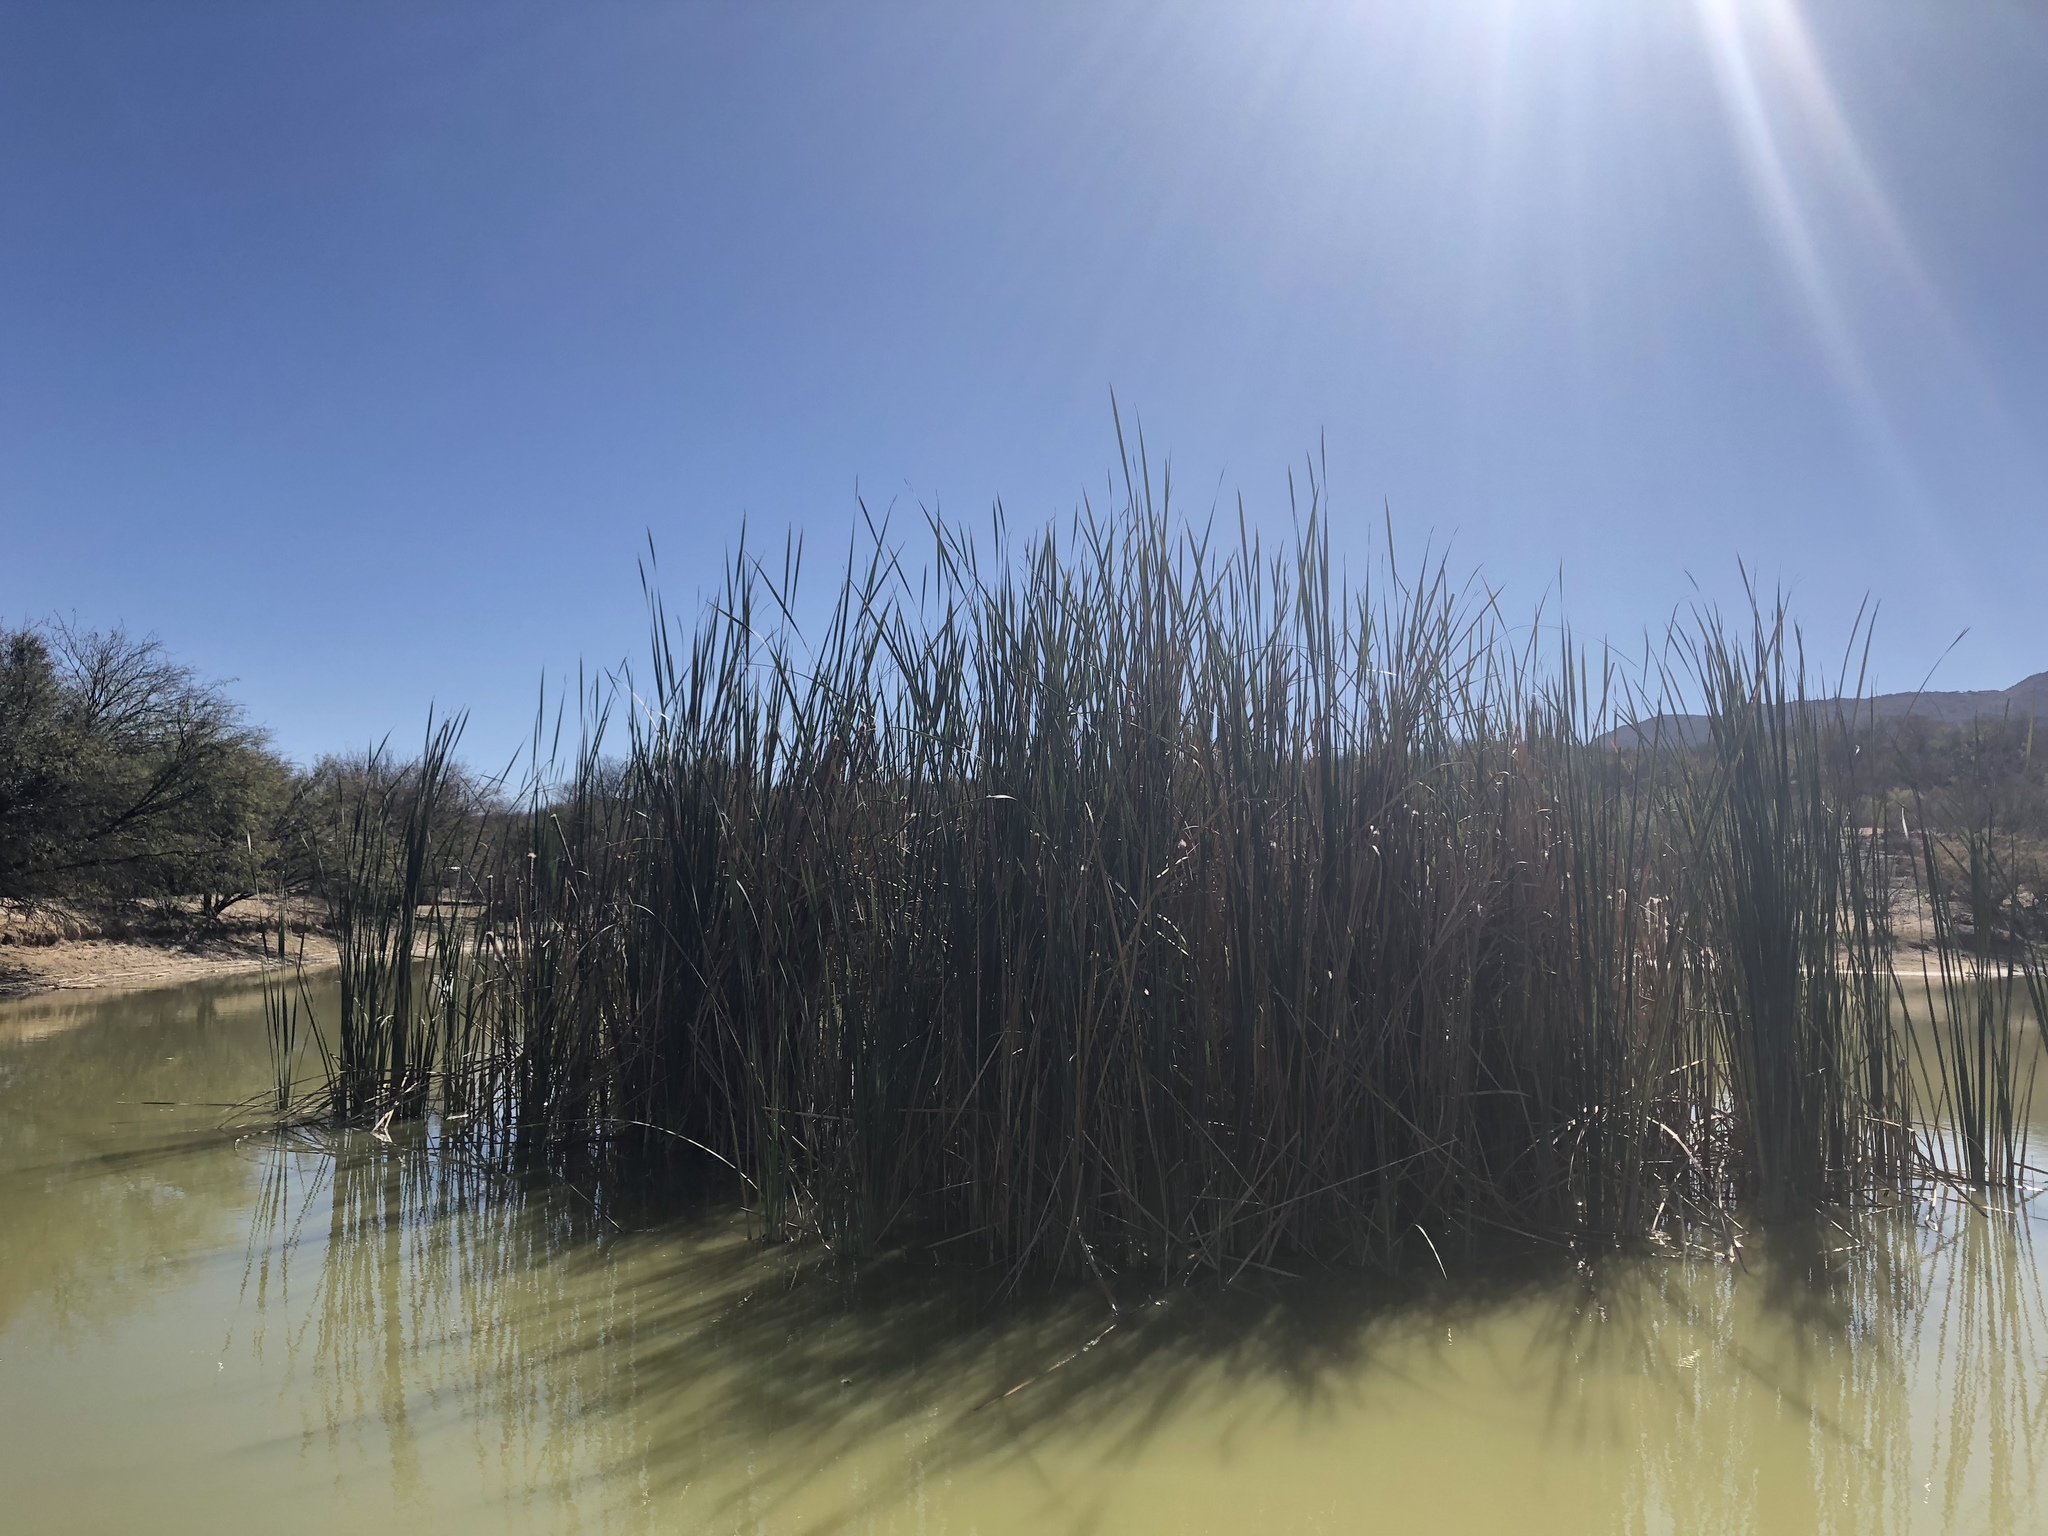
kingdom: Plantae
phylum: Tracheophyta
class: Liliopsida
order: Poales
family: Typhaceae
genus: Typha
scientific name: Typha domingensis
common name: Southern cattail
